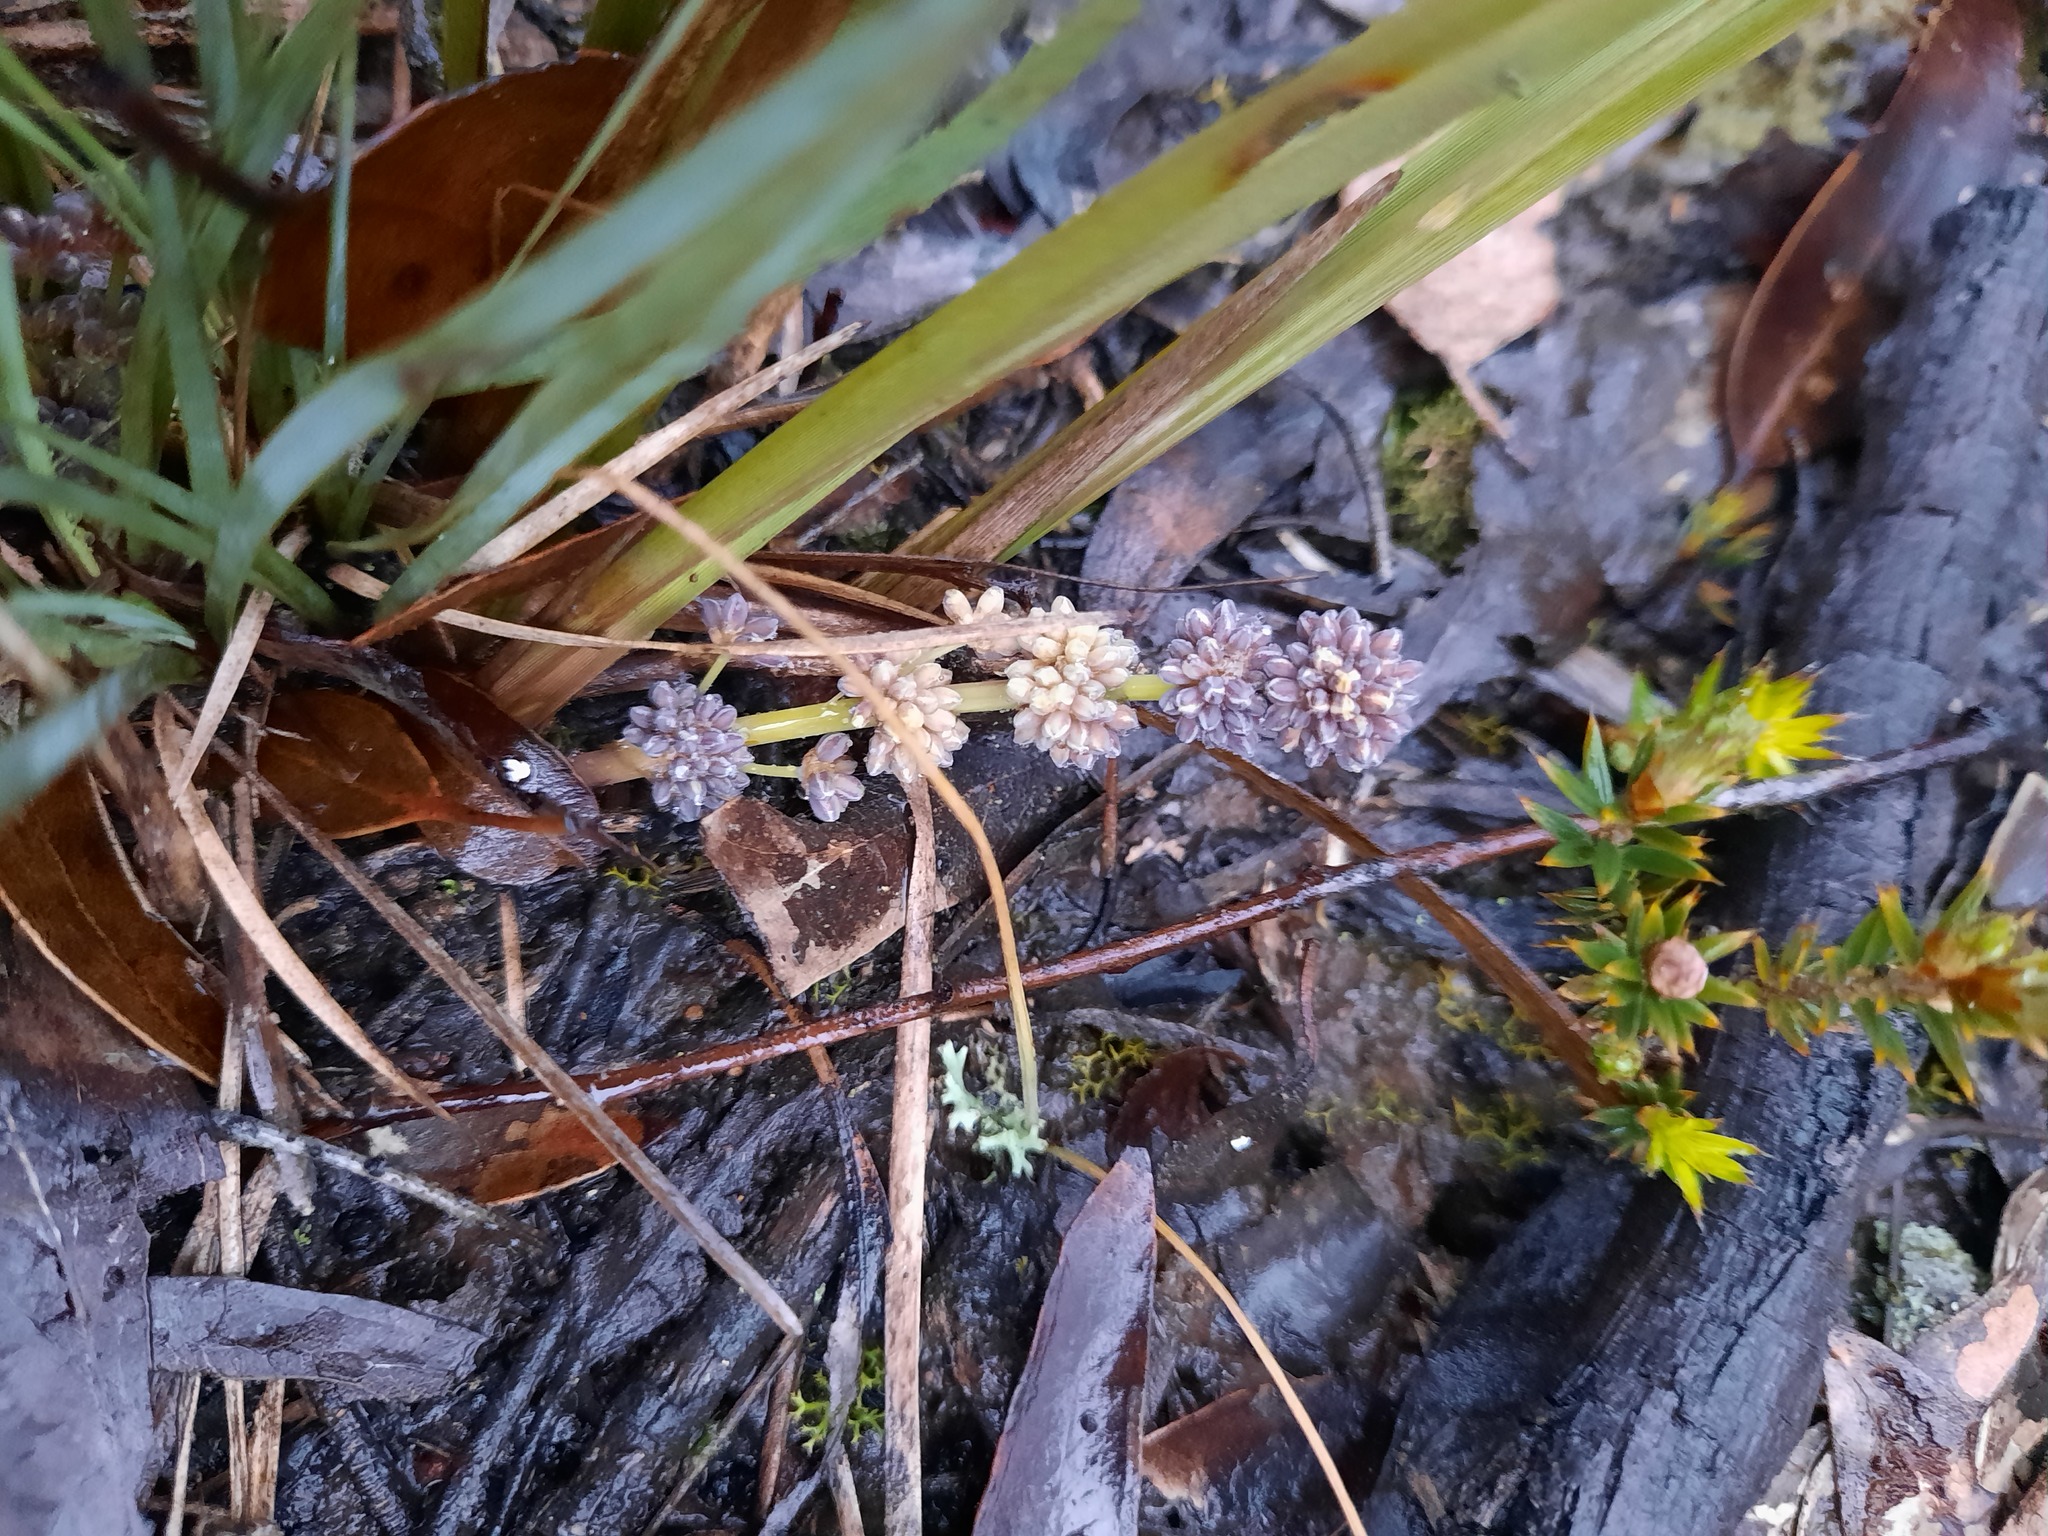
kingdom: Plantae
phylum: Tracheophyta
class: Liliopsida
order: Asparagales
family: Asparagaceae
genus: Lomandra
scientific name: Lomandra multiflora
